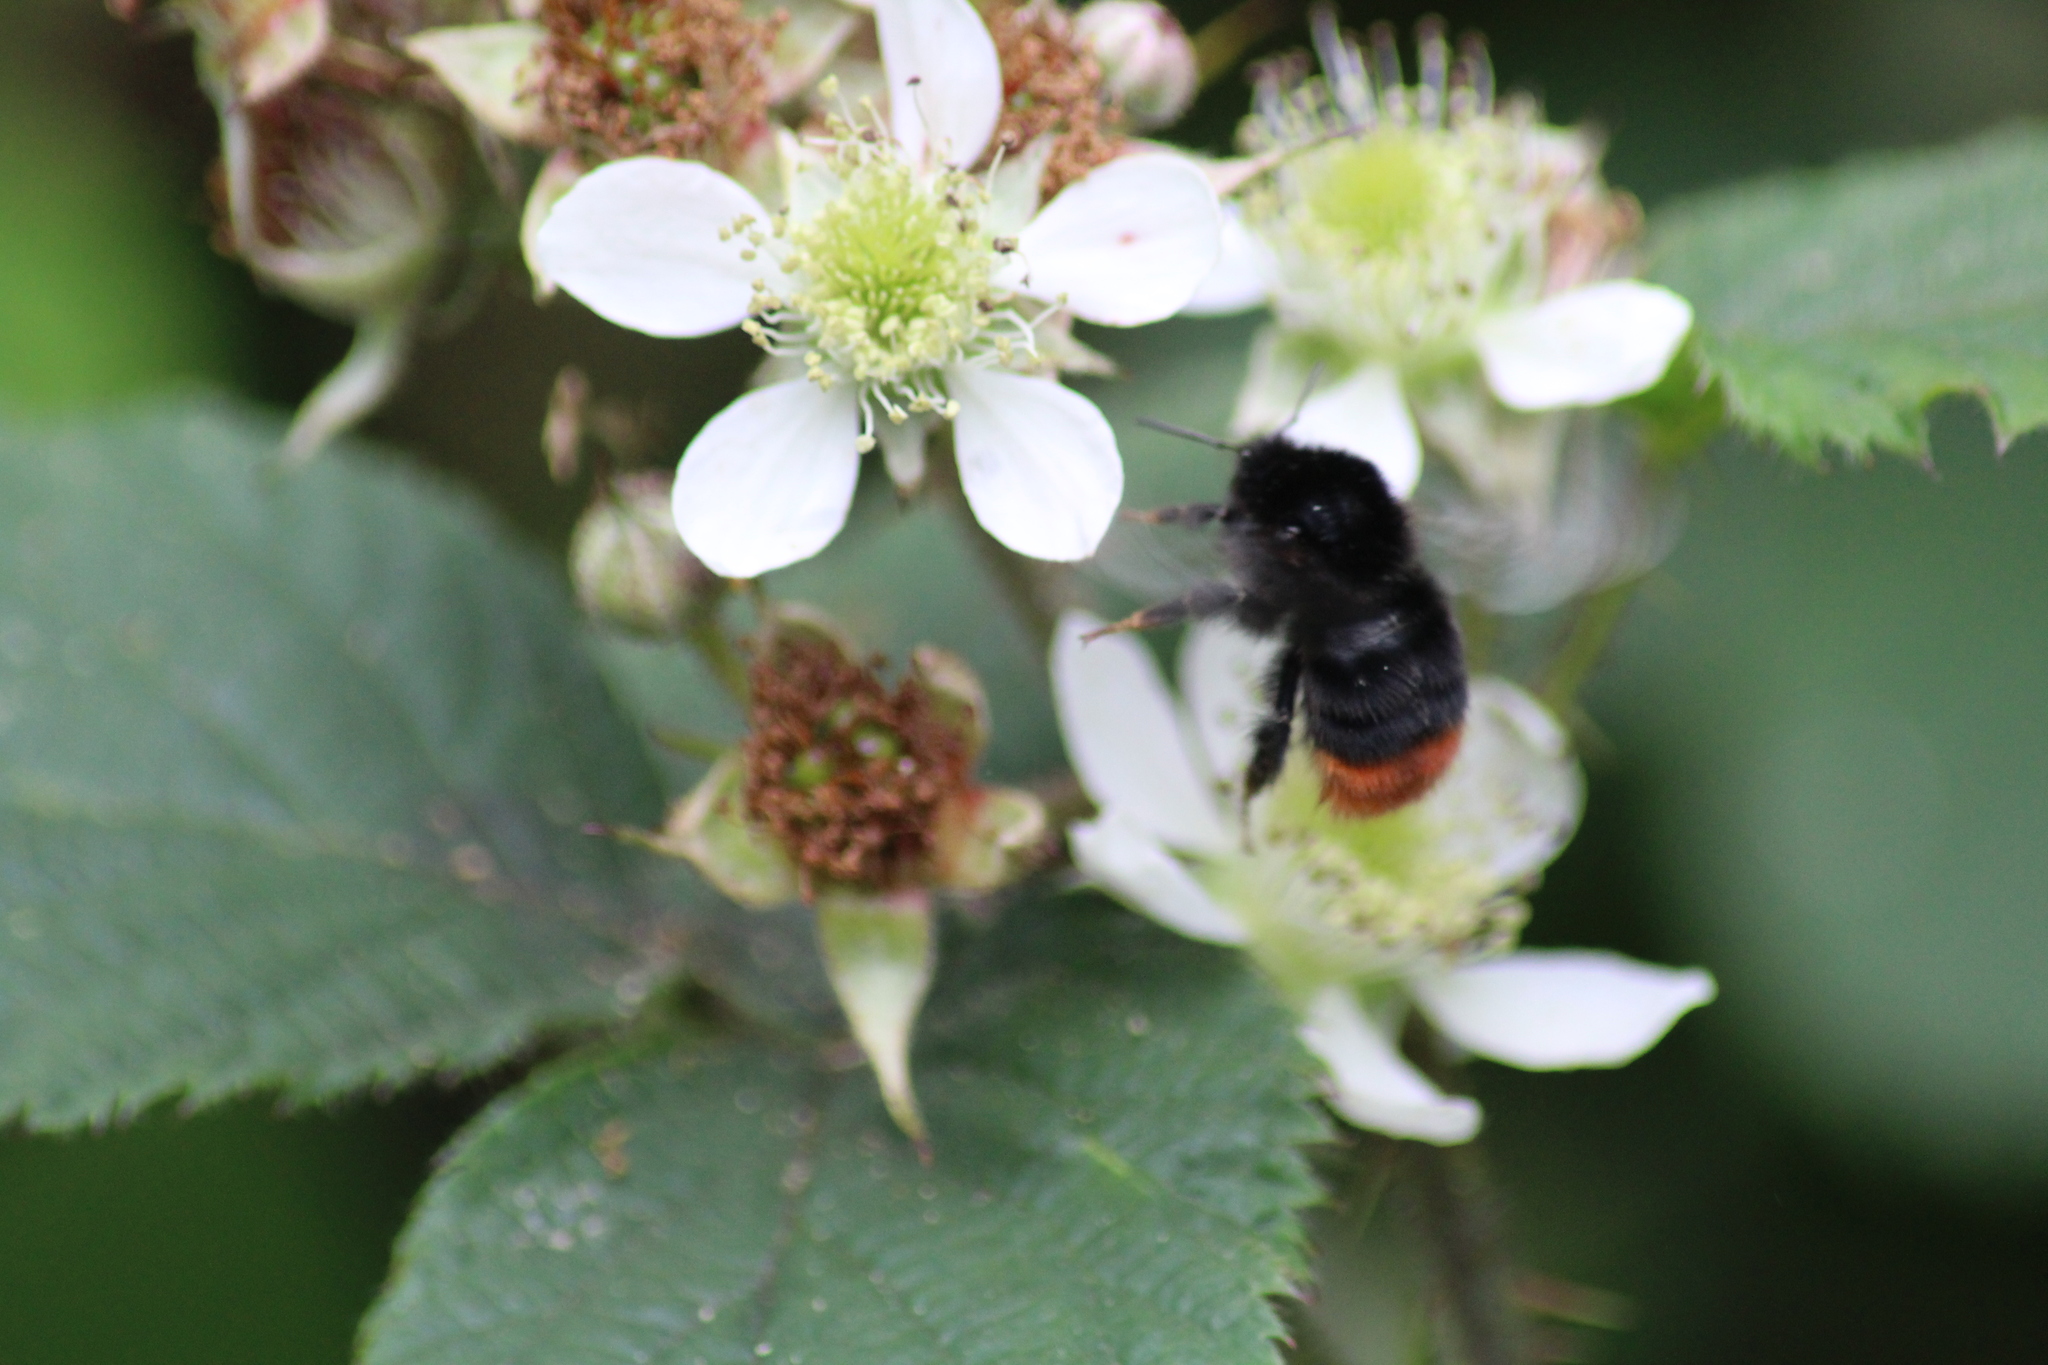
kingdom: Animalia
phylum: Arthropoda
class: Insecta
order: Hymenoptera
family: Apidae
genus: Bombus
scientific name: Bombus lapidarius
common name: Large red-tailed humble-bee
